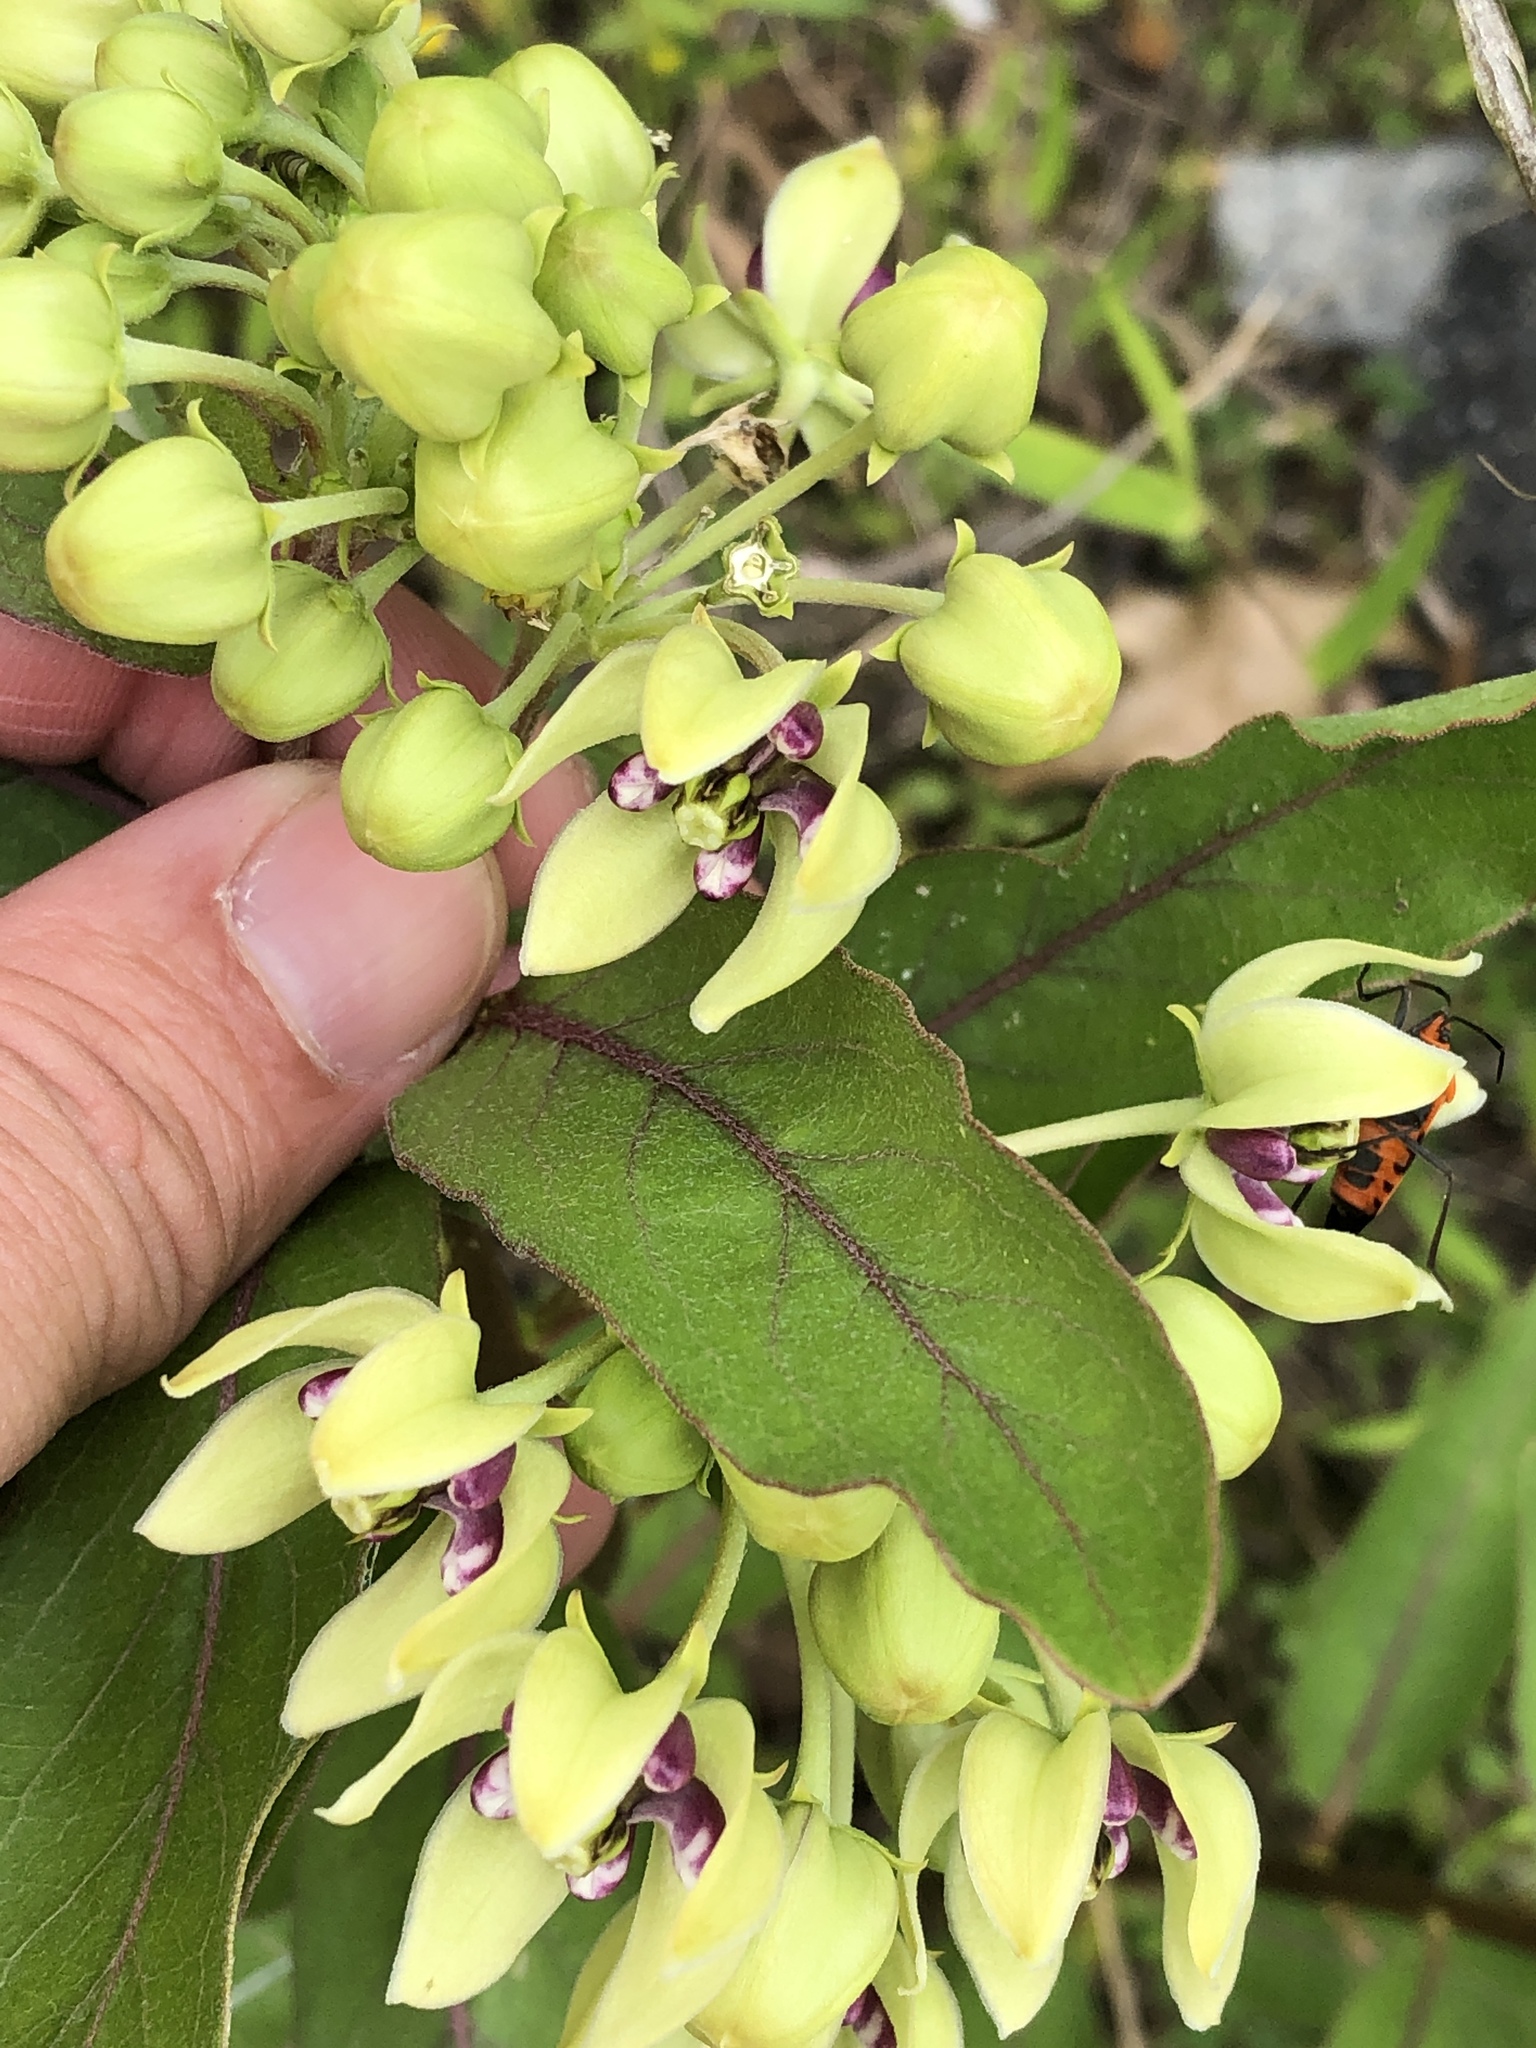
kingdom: Plantae
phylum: Tracheophyta
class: Magnoliopsida
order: Gentianales
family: Apocynaceae
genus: Asclepias
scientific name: Asclepias viridis
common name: Antelope-horns
